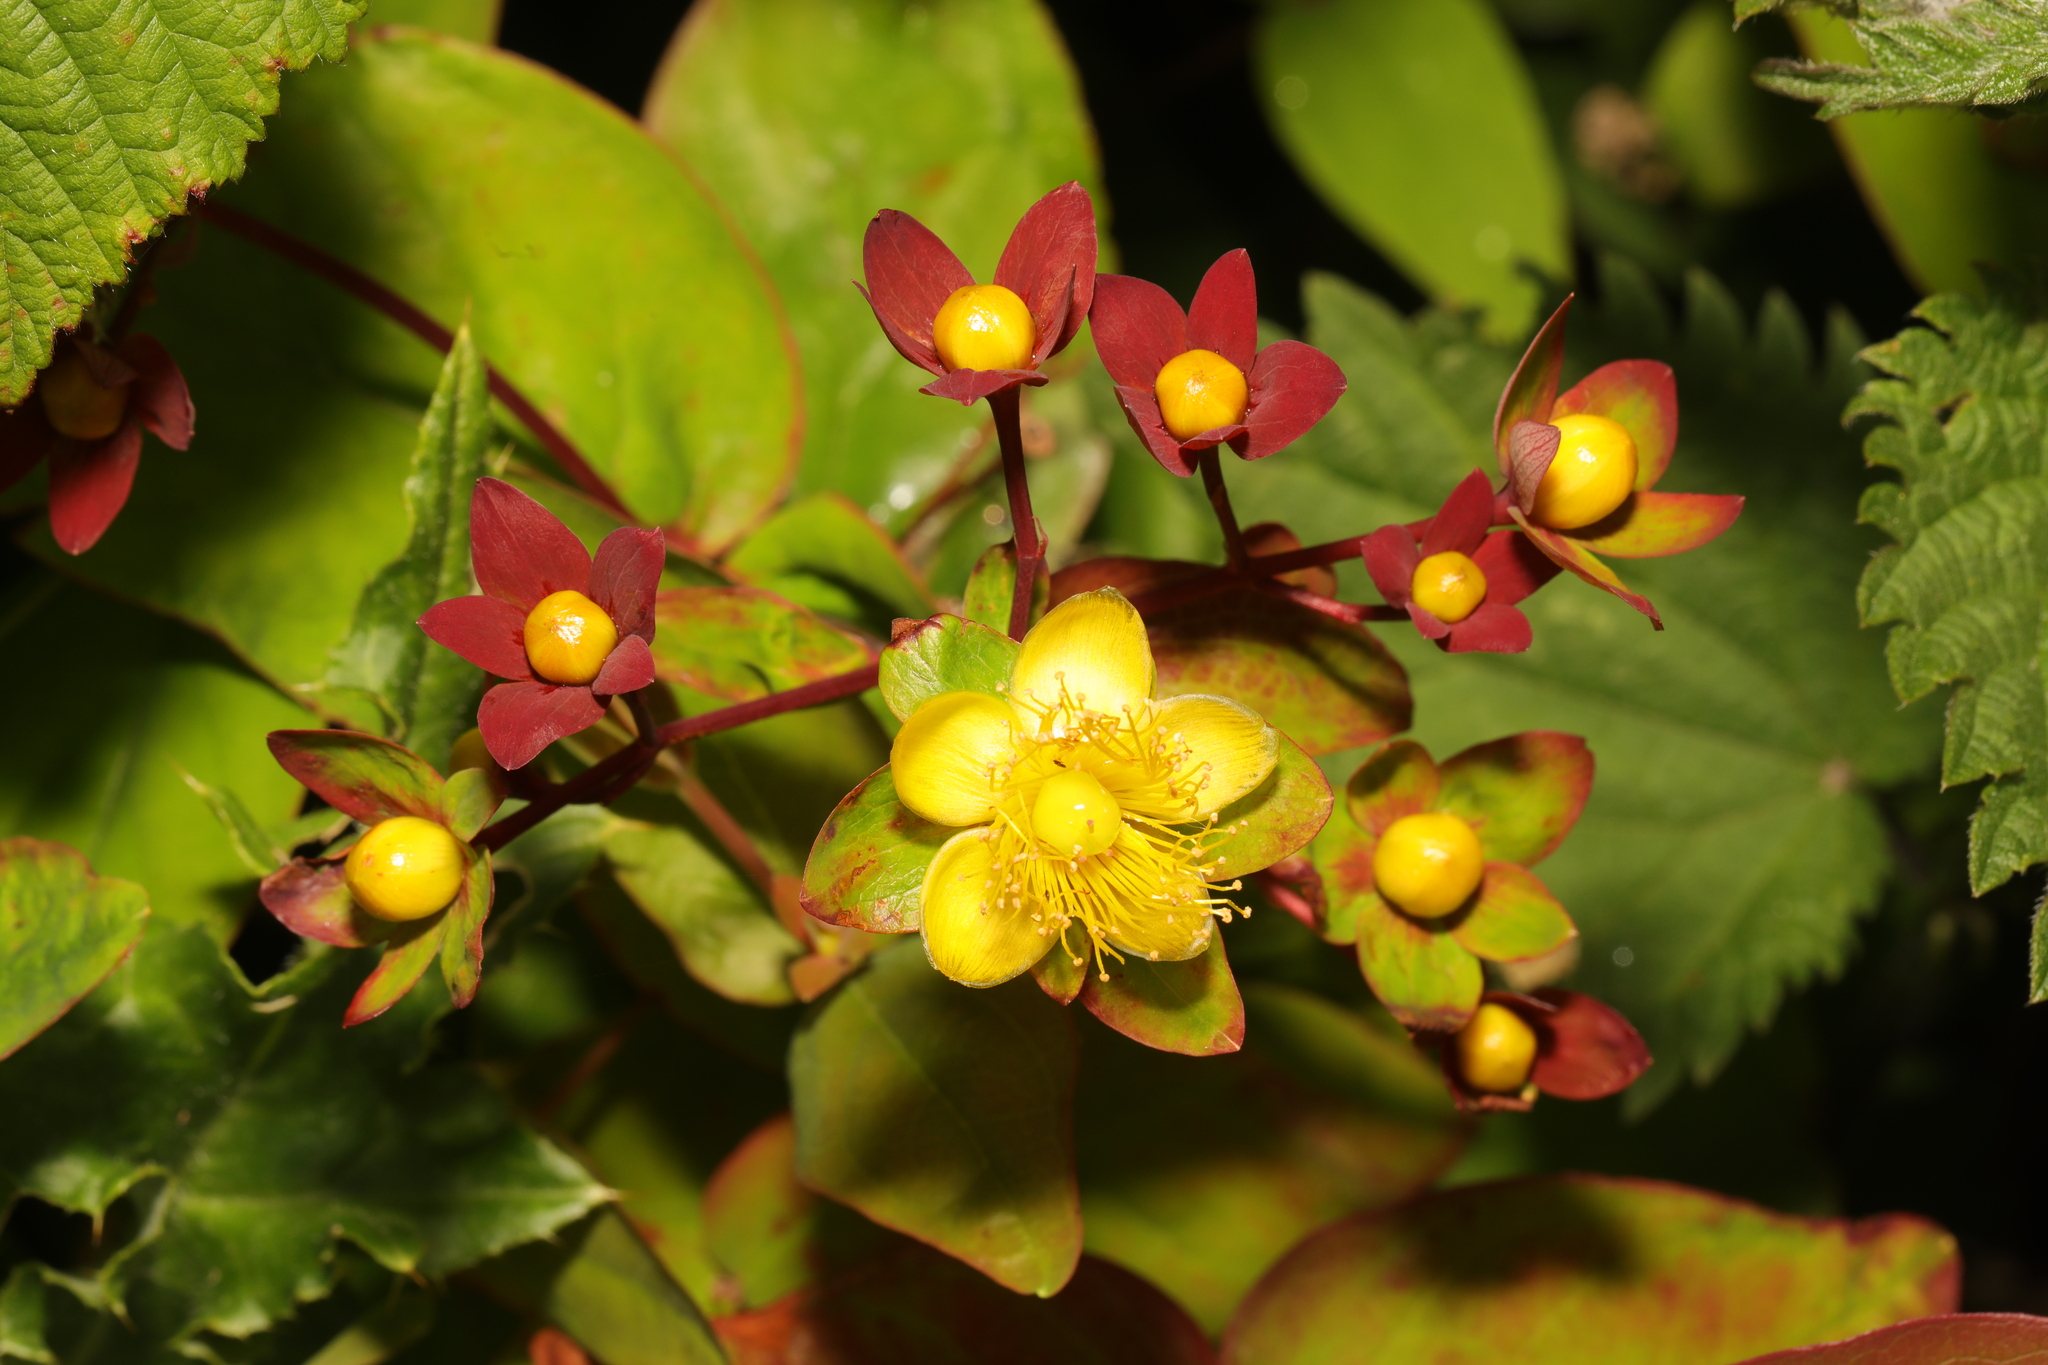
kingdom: Plantae
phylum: Tracheophyta
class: Magnoliopsida
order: Malpighiales
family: Hypericaceae
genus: Hypericum
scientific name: Hypericum androsaemum
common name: Sweet-amber
